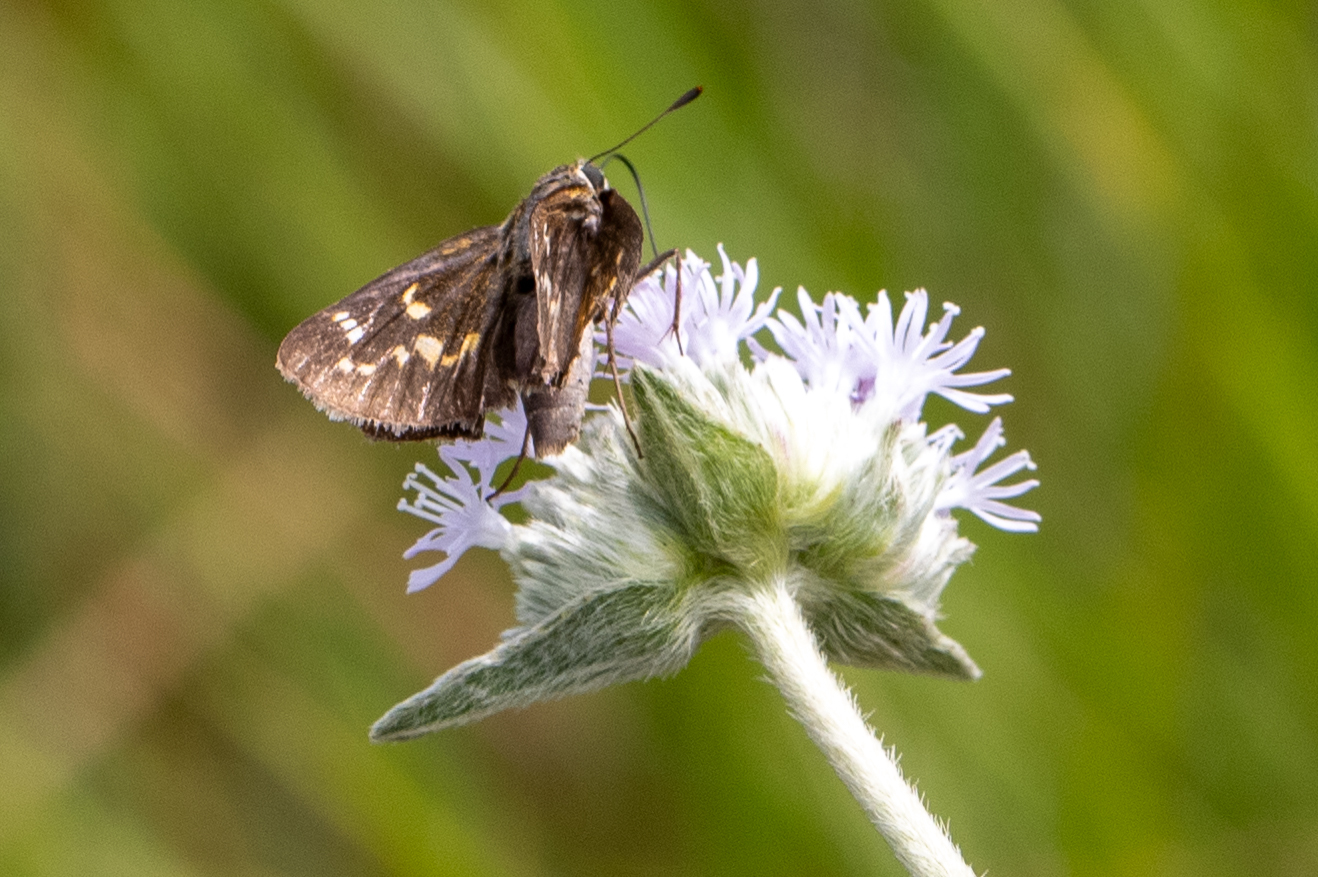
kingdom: Animalia
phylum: Arthropoda
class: Insecta
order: Lepidoptera
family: Hesperiidae
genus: Hesperia
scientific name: Hesperia attalus
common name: Dotted skipper
